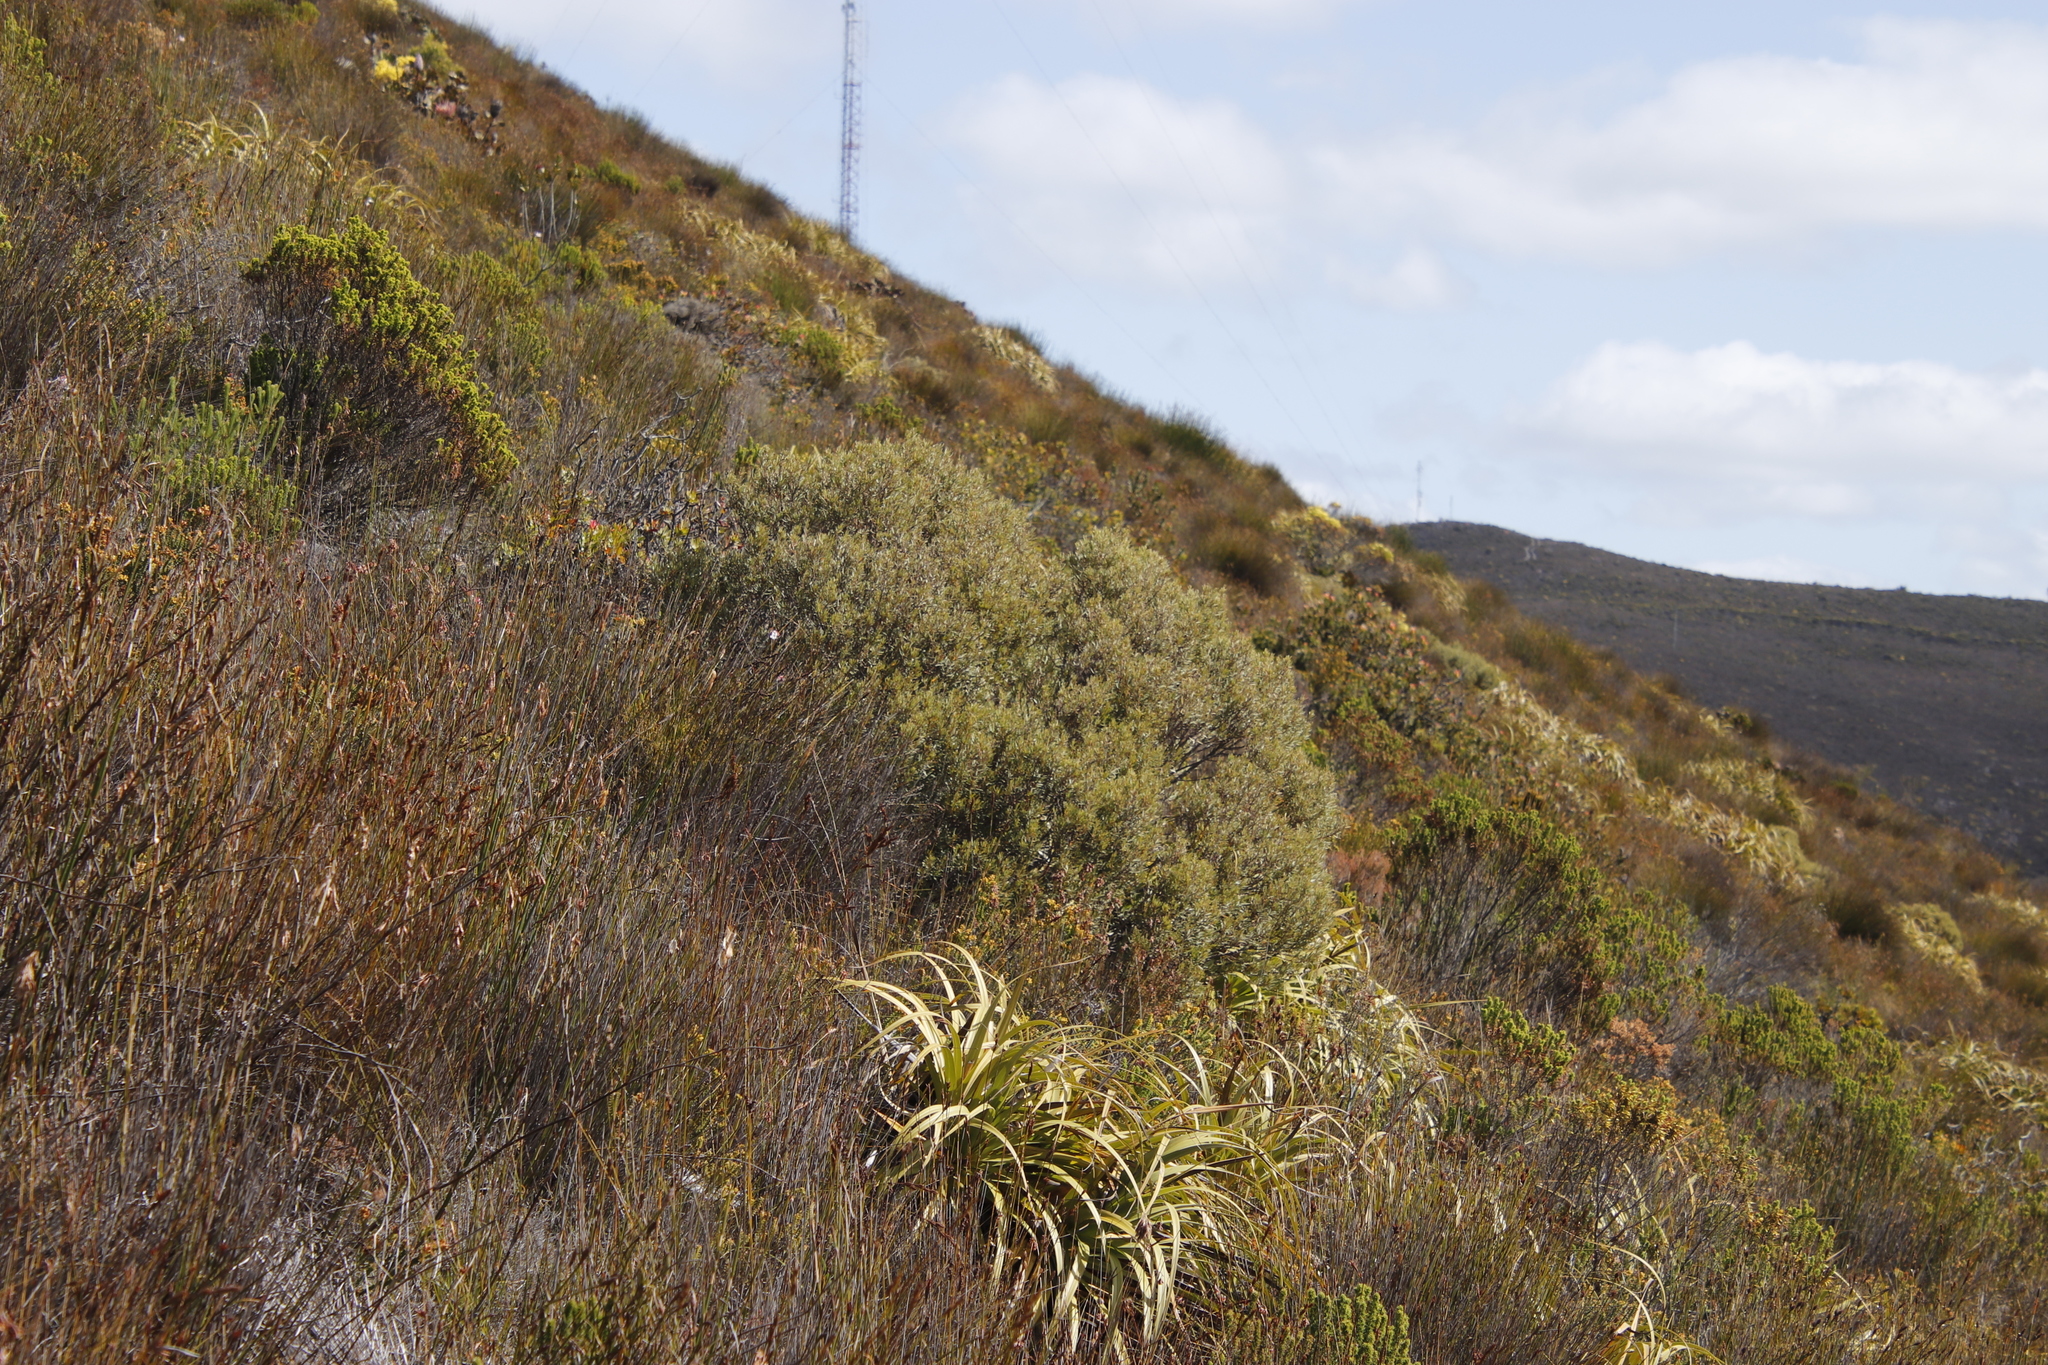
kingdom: Plantae
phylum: Tracheophyta
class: Magnoliopsida
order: Cornales
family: Grubbiaceae
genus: Grubbia
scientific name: Grubbia tomentosa
